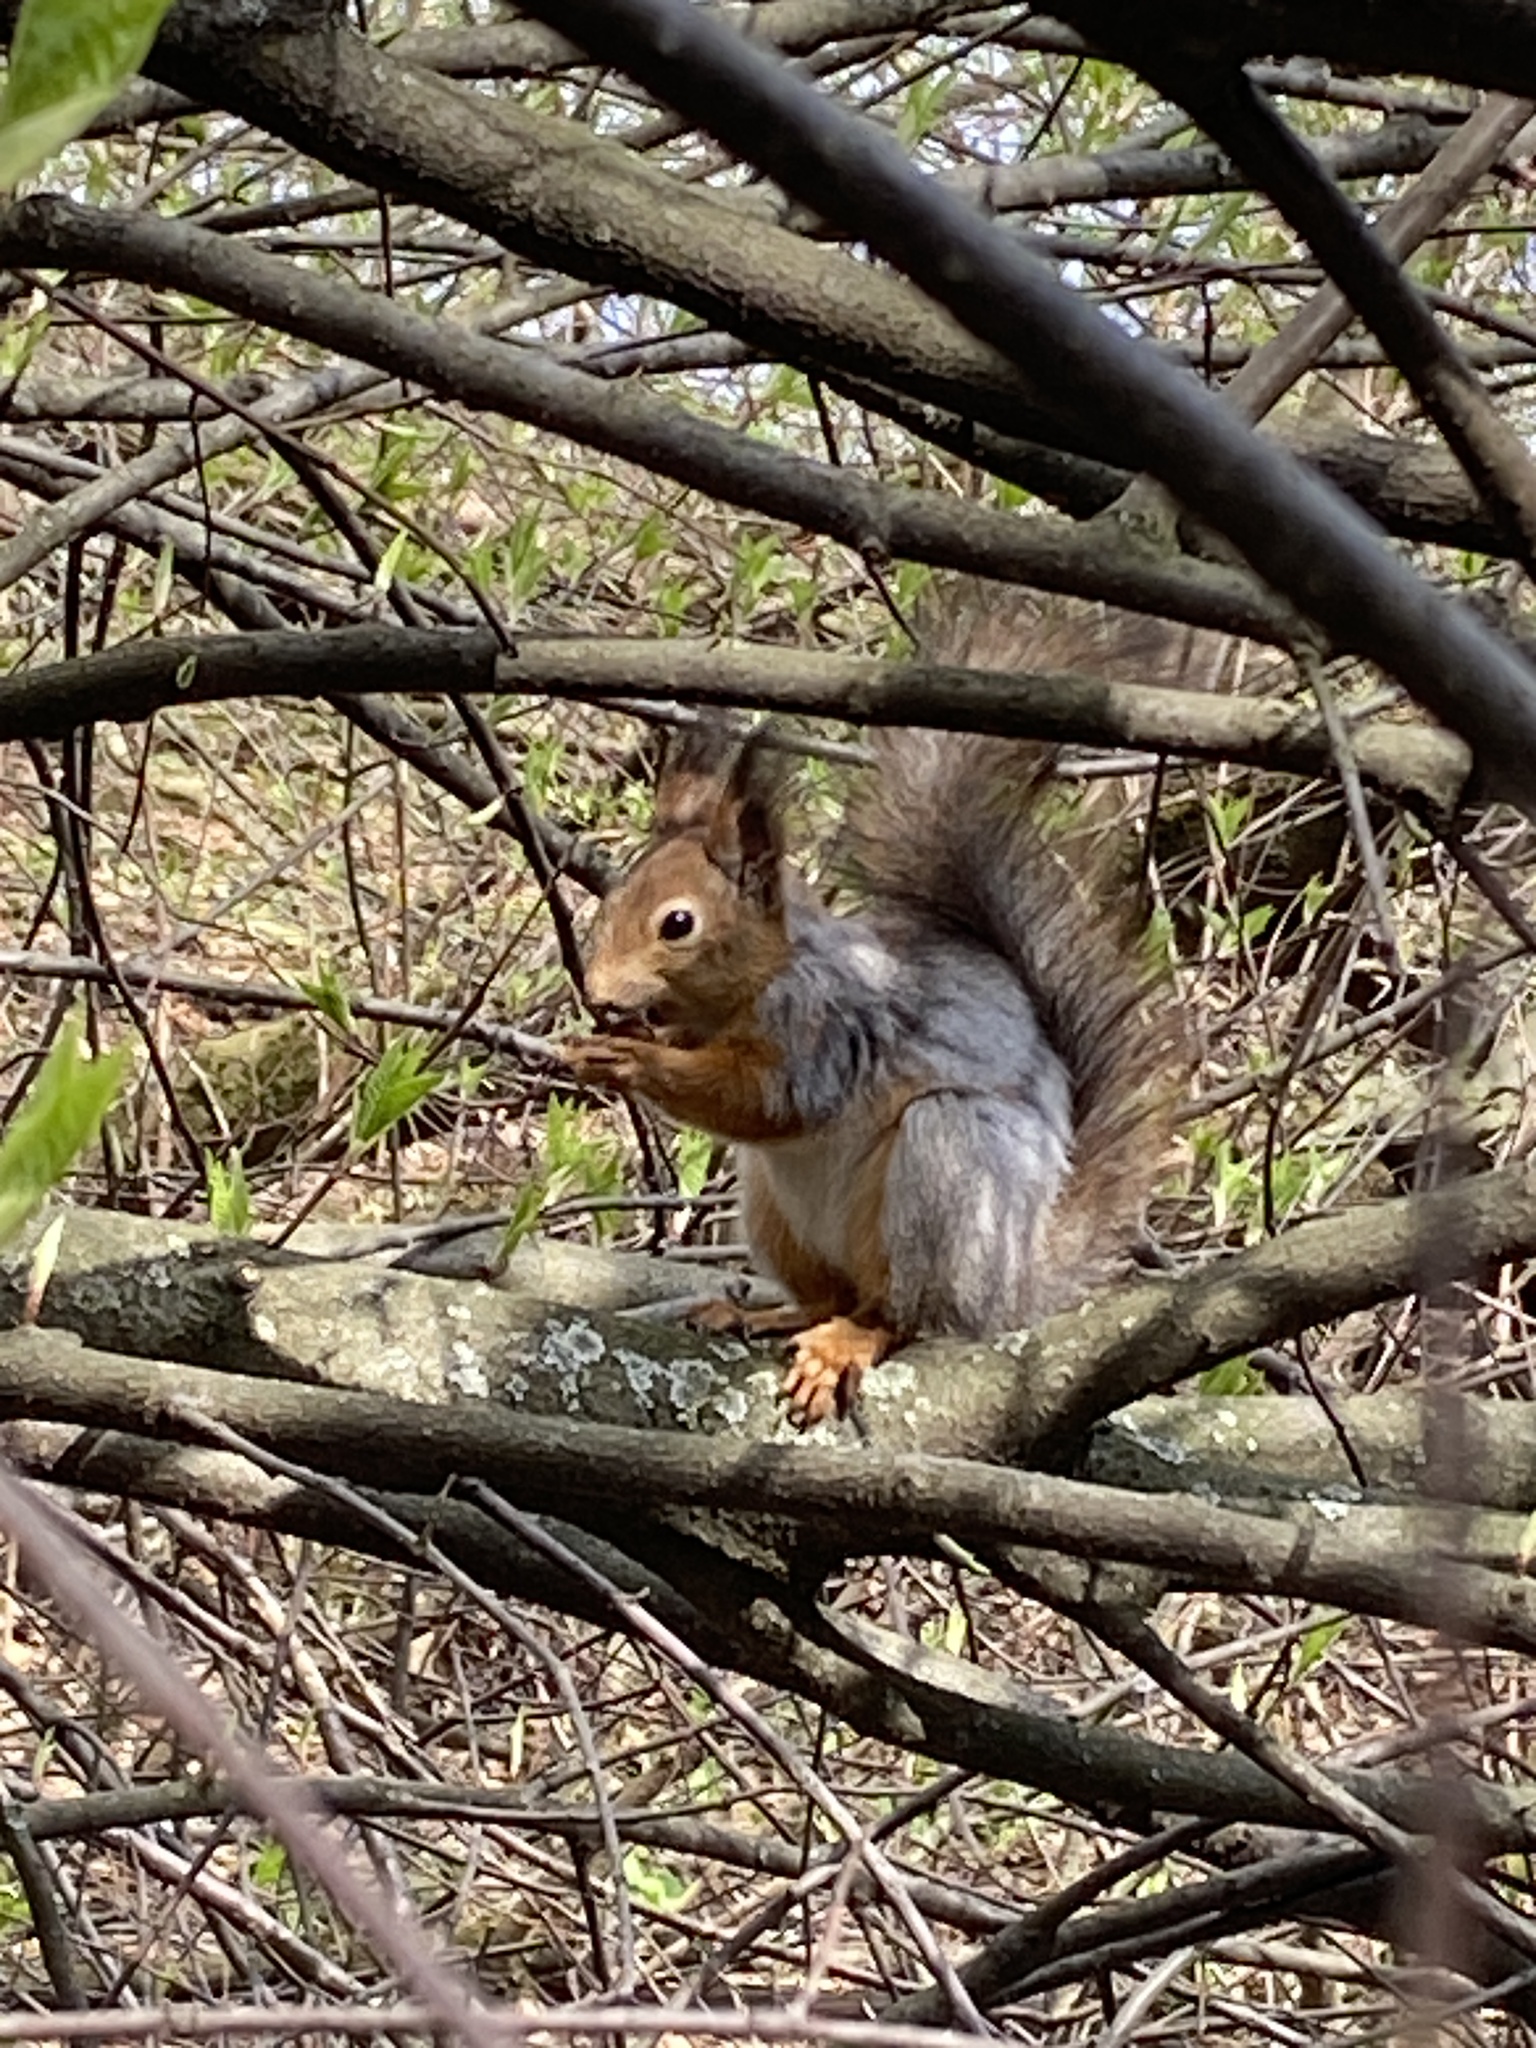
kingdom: Animalia
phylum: Chordata
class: Mammalia
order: Rodentia
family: Sciuridae
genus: Sciurus
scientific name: Sciurus vulgaris
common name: Eurasian red squirrel
